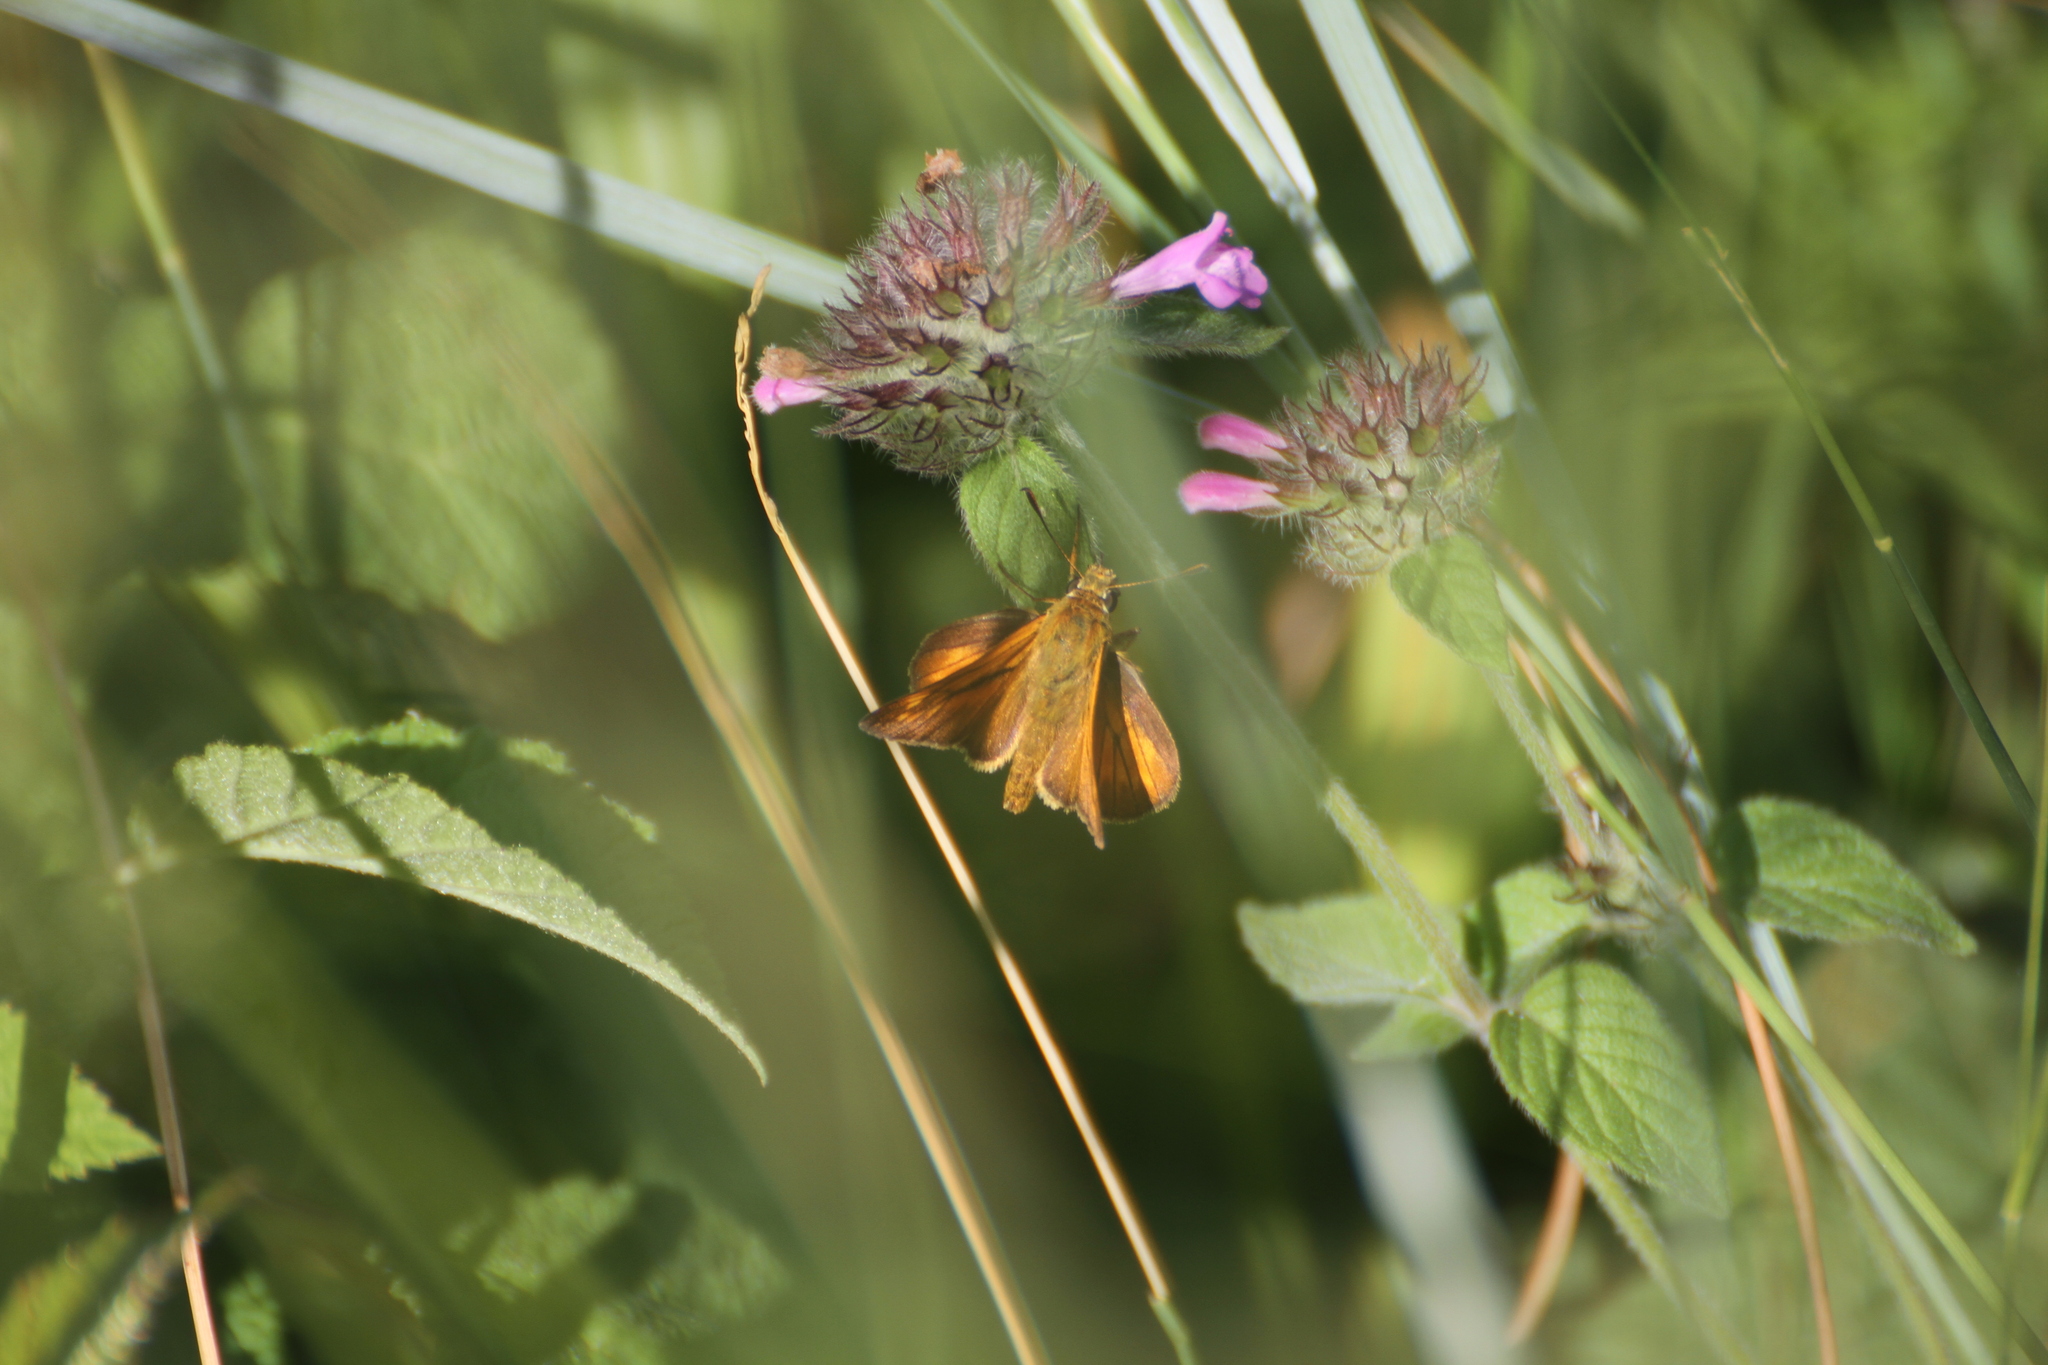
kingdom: Animalia
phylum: Arthropoda
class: Insecta
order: Lepidoptera
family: Hesperiidae
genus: Ochlodes
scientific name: Ochlodes venata
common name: Large skipper
